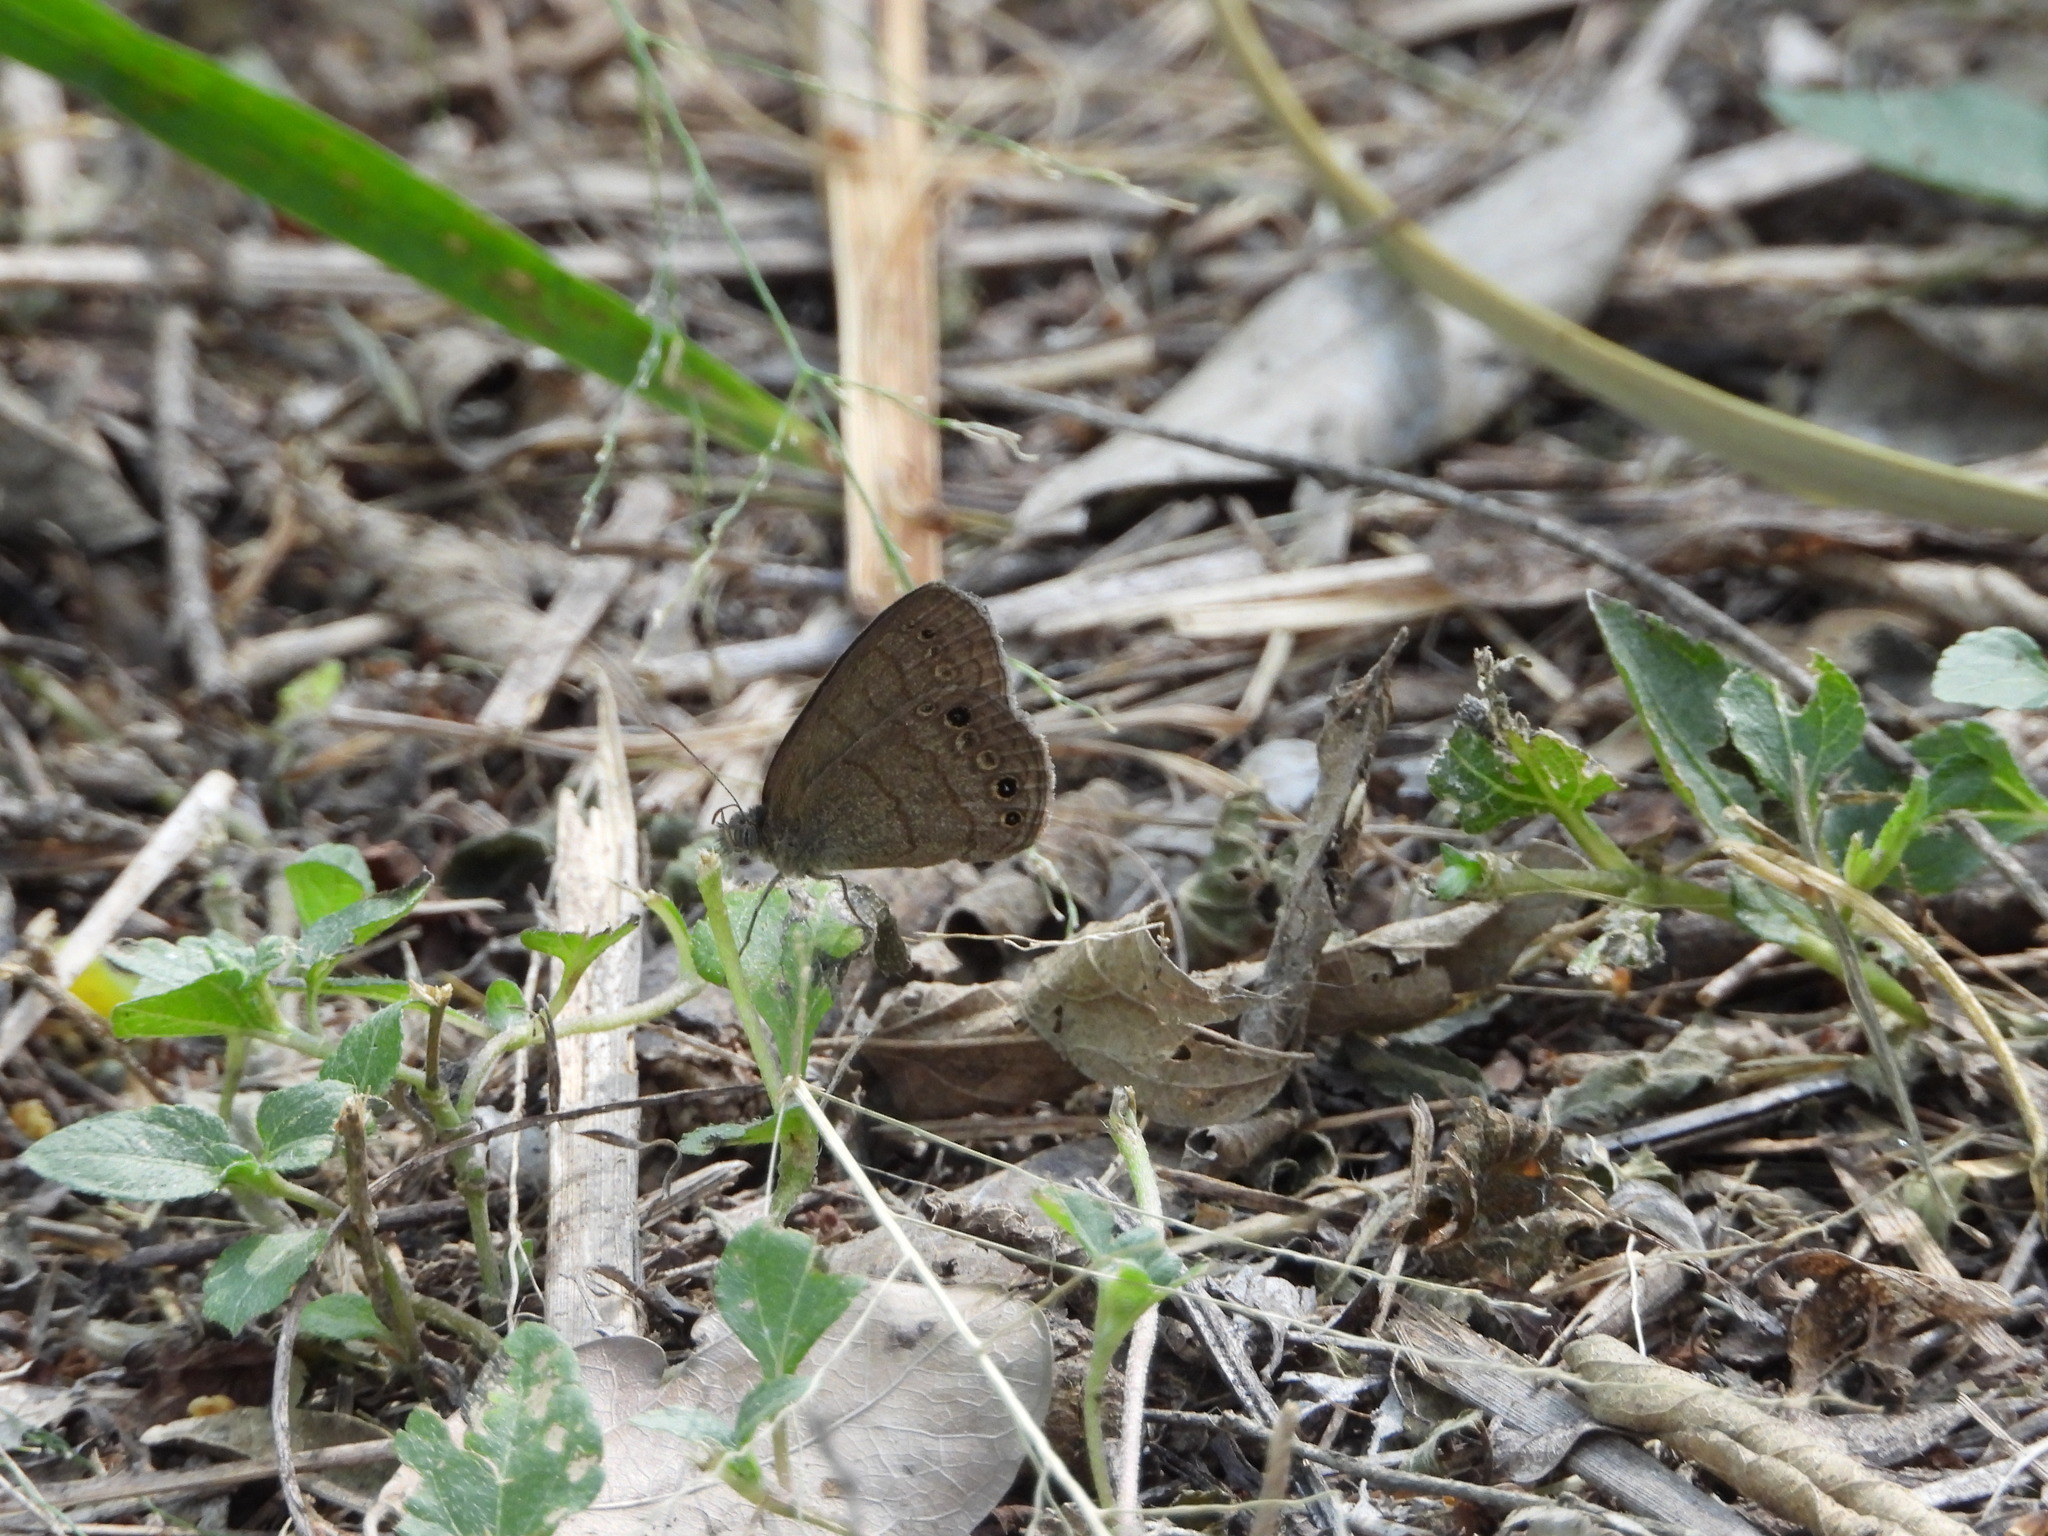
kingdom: Animalia
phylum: Arthropoda
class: Insecta
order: Lepidoptera
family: Nymphalidae
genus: Hermeuptychia
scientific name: Hermeuptychia hermybius
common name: South texas satyr
